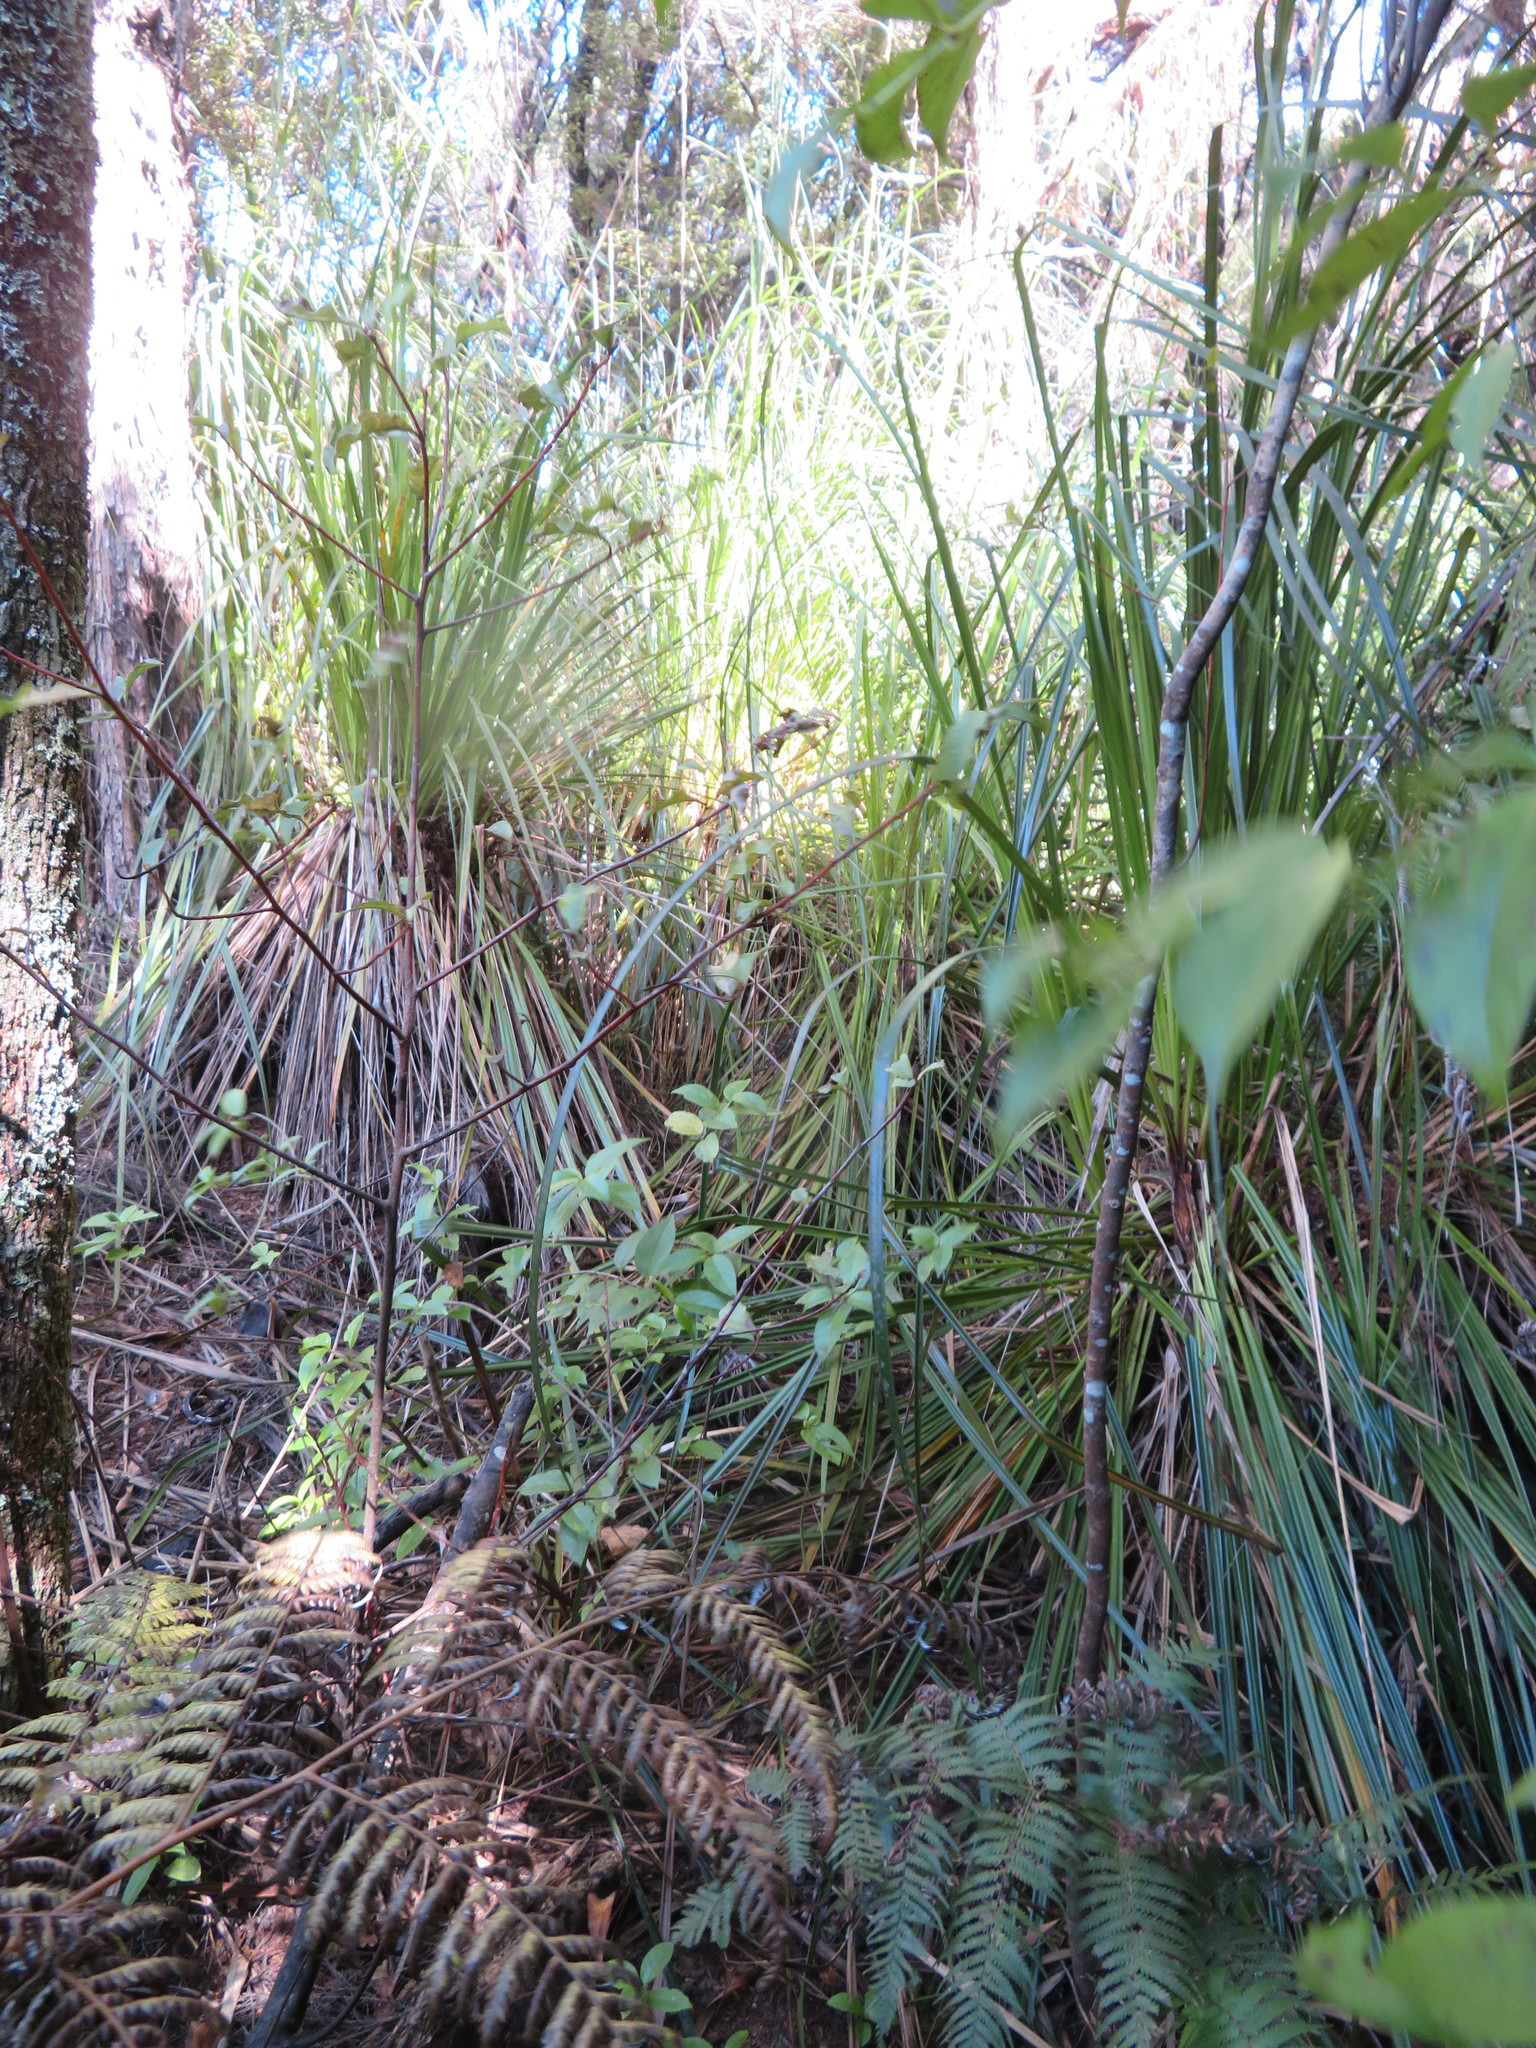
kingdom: Plantae
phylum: Tracheophyta
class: Liliopsida
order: Poales
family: Cyperaceae
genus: Gahnia
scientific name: Gahnia xanthocarpa
